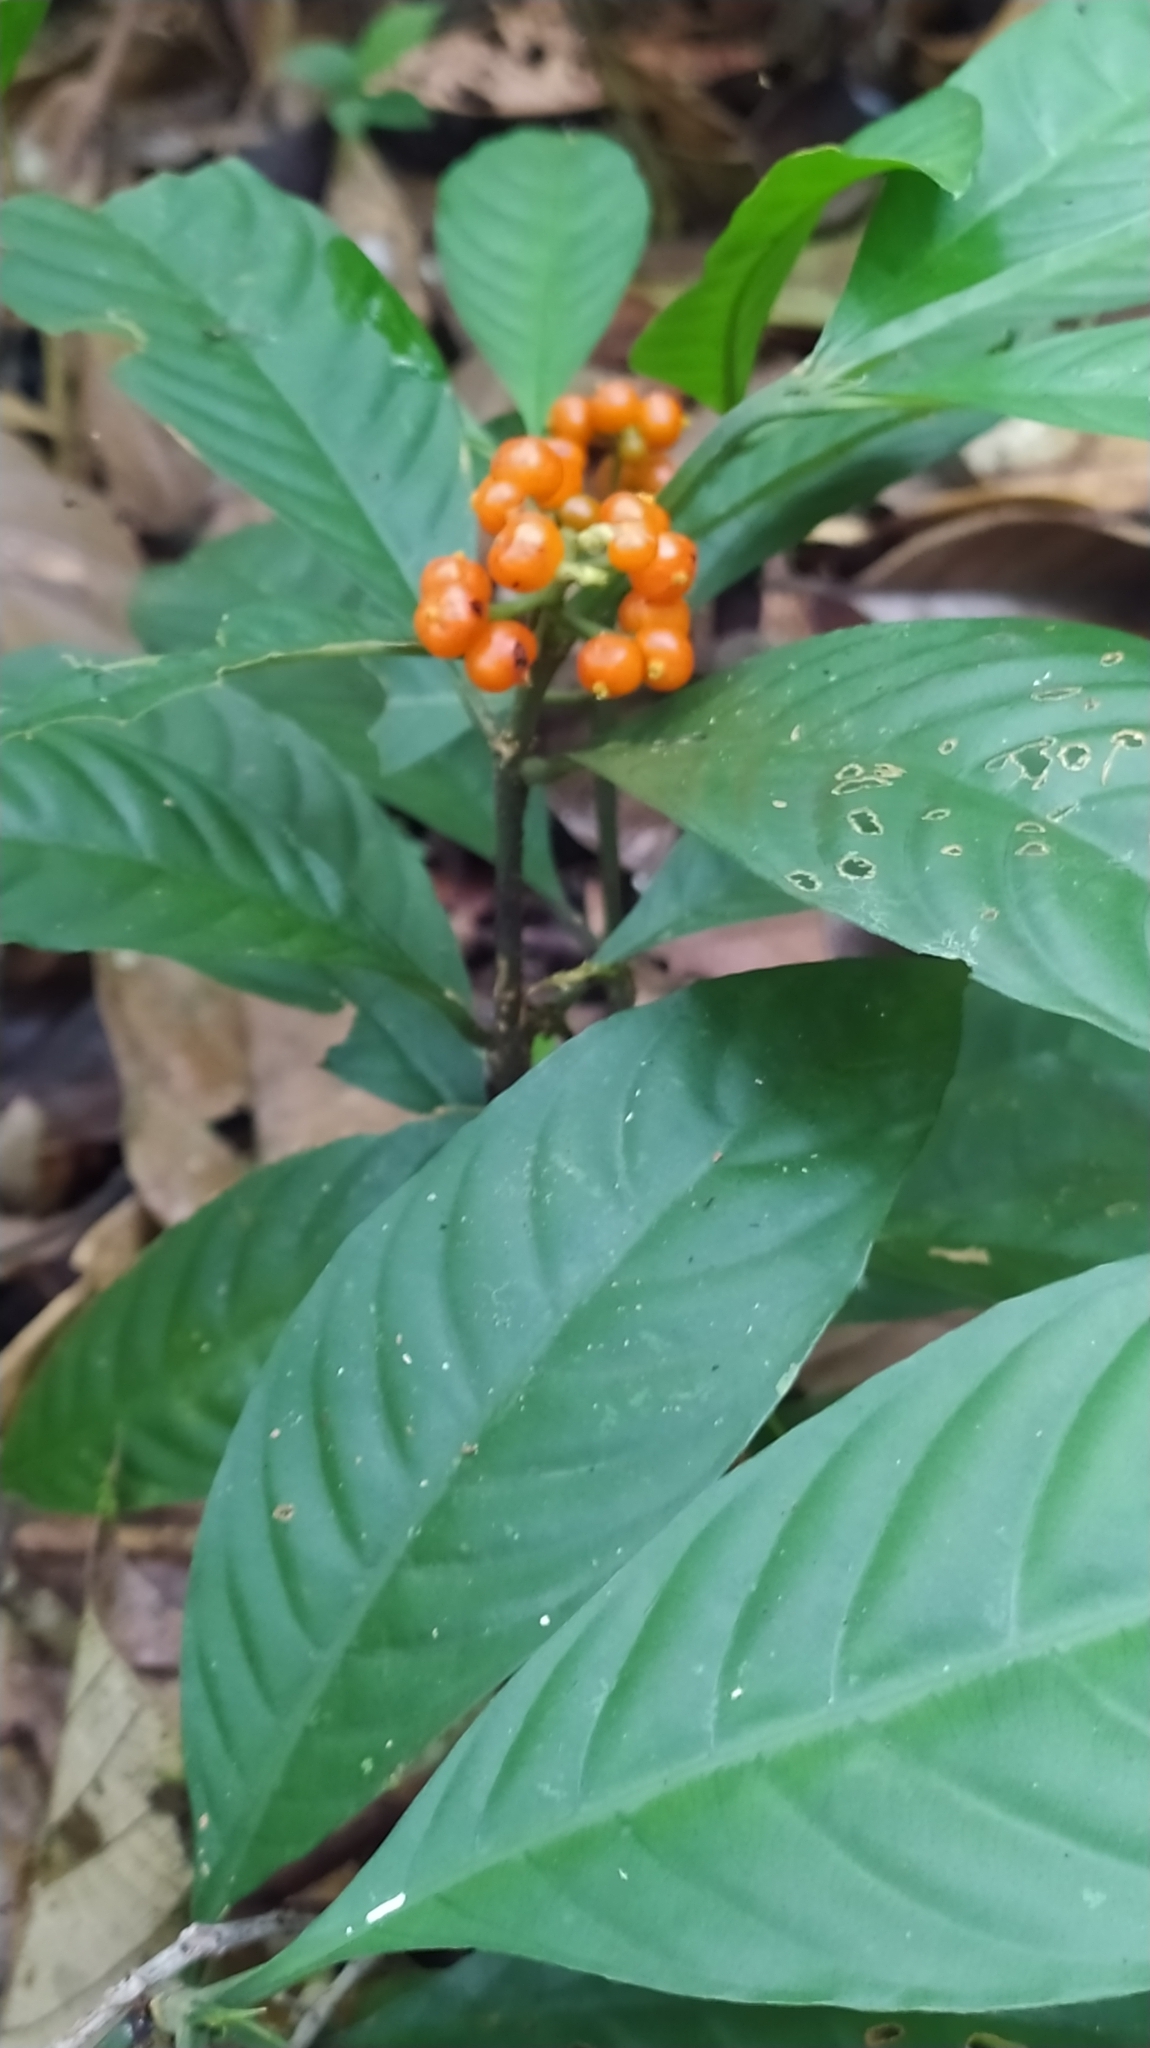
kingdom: Plantae
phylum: Tracheophyta
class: Magnoliopsida
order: Gentianales
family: Rubiaceae
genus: Palicourea
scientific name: Palicourea racemosa
